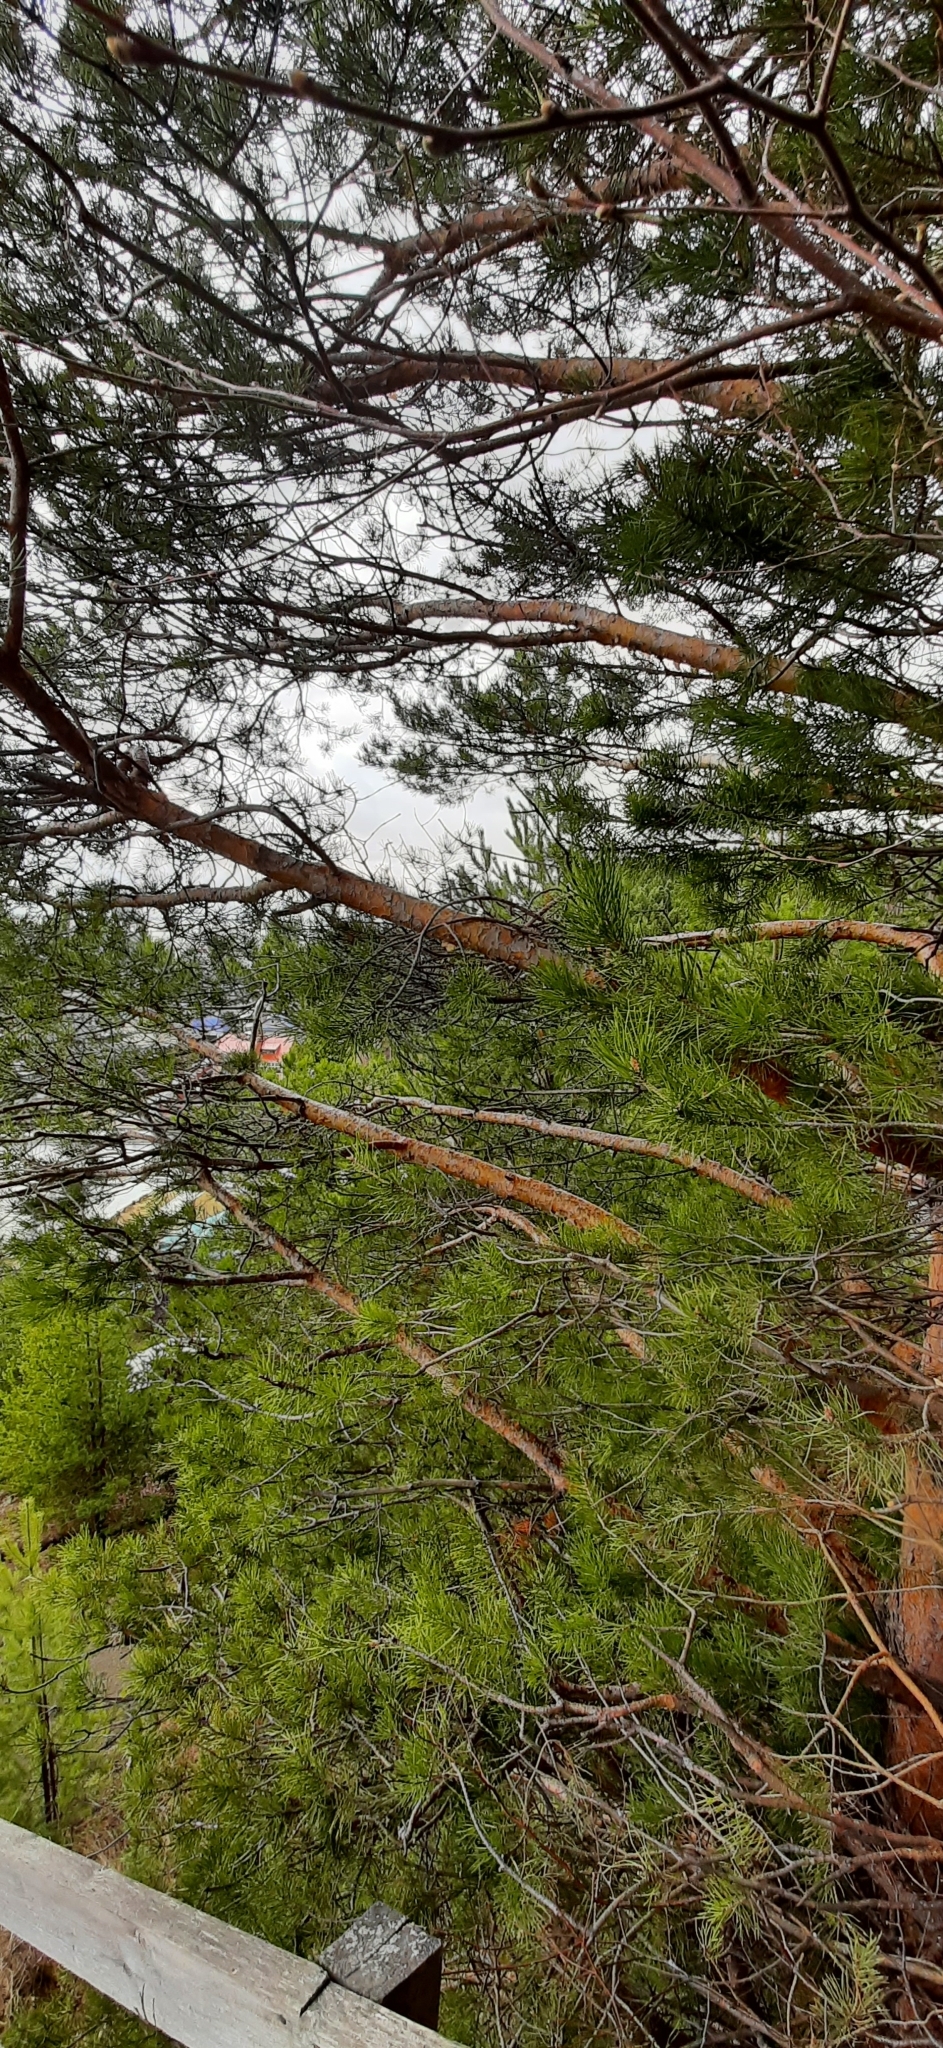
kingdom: Plantae
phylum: Tracheophyta
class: Pinopsida
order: Pinales
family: Pinaceae
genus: Pinus
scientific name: Pinus sylvestris
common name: Scots pine
